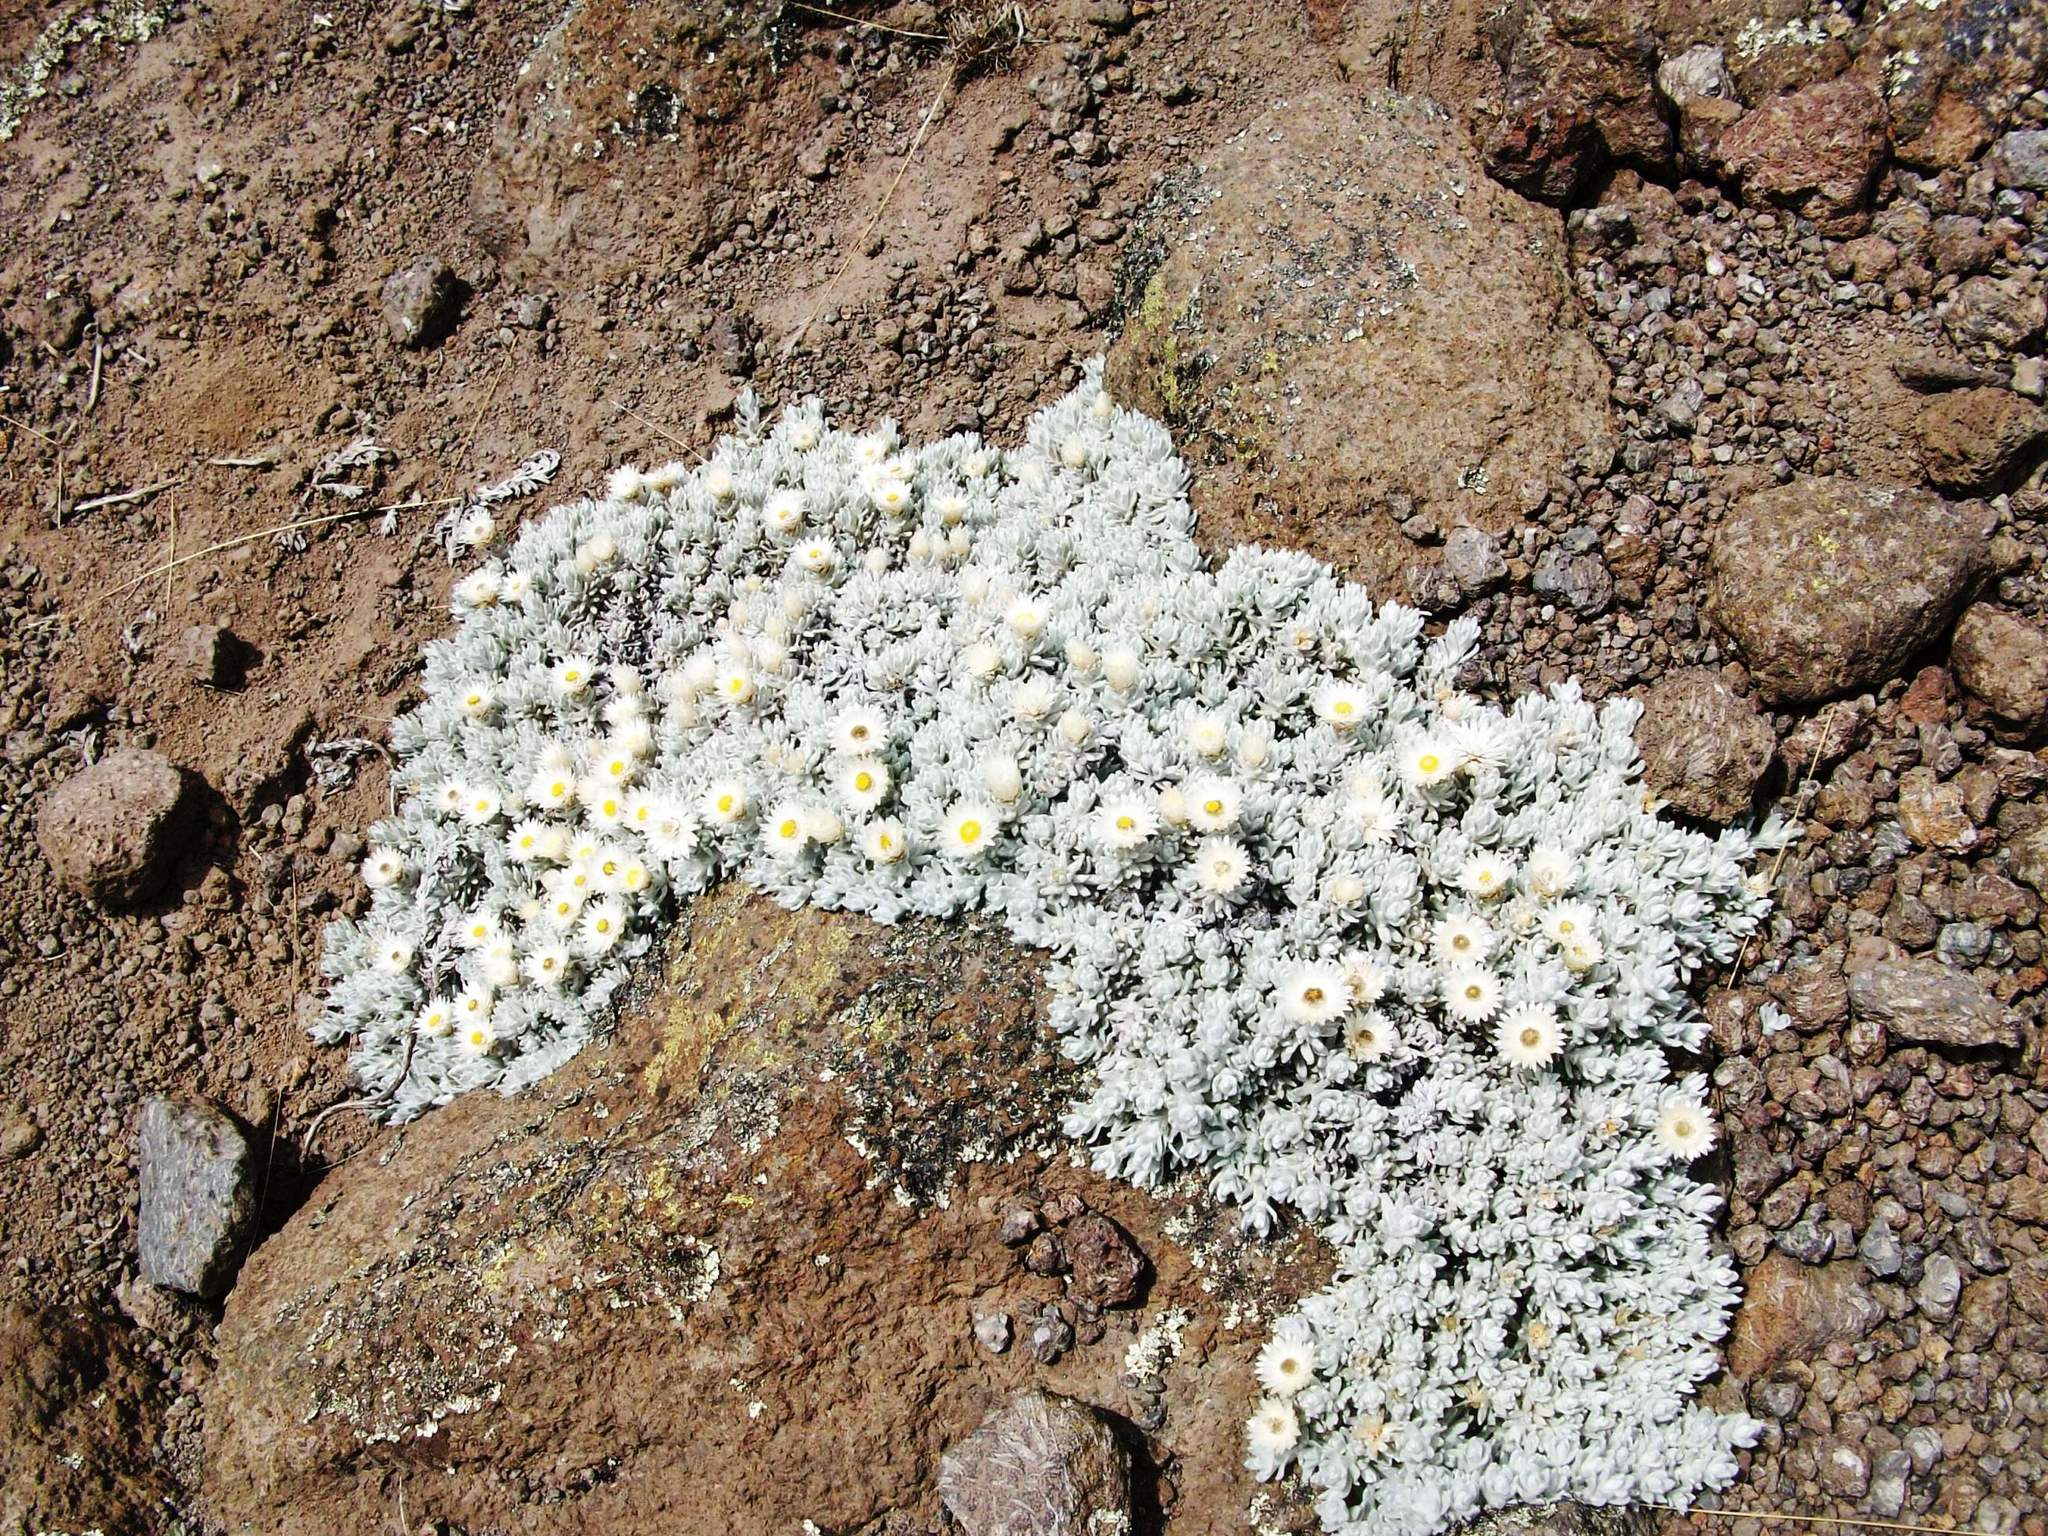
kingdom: Plantae
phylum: Tracheophyta
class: Magnoliopsida
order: Asterales
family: Asteraceae
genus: Helichrysum
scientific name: Helichrysum newii
